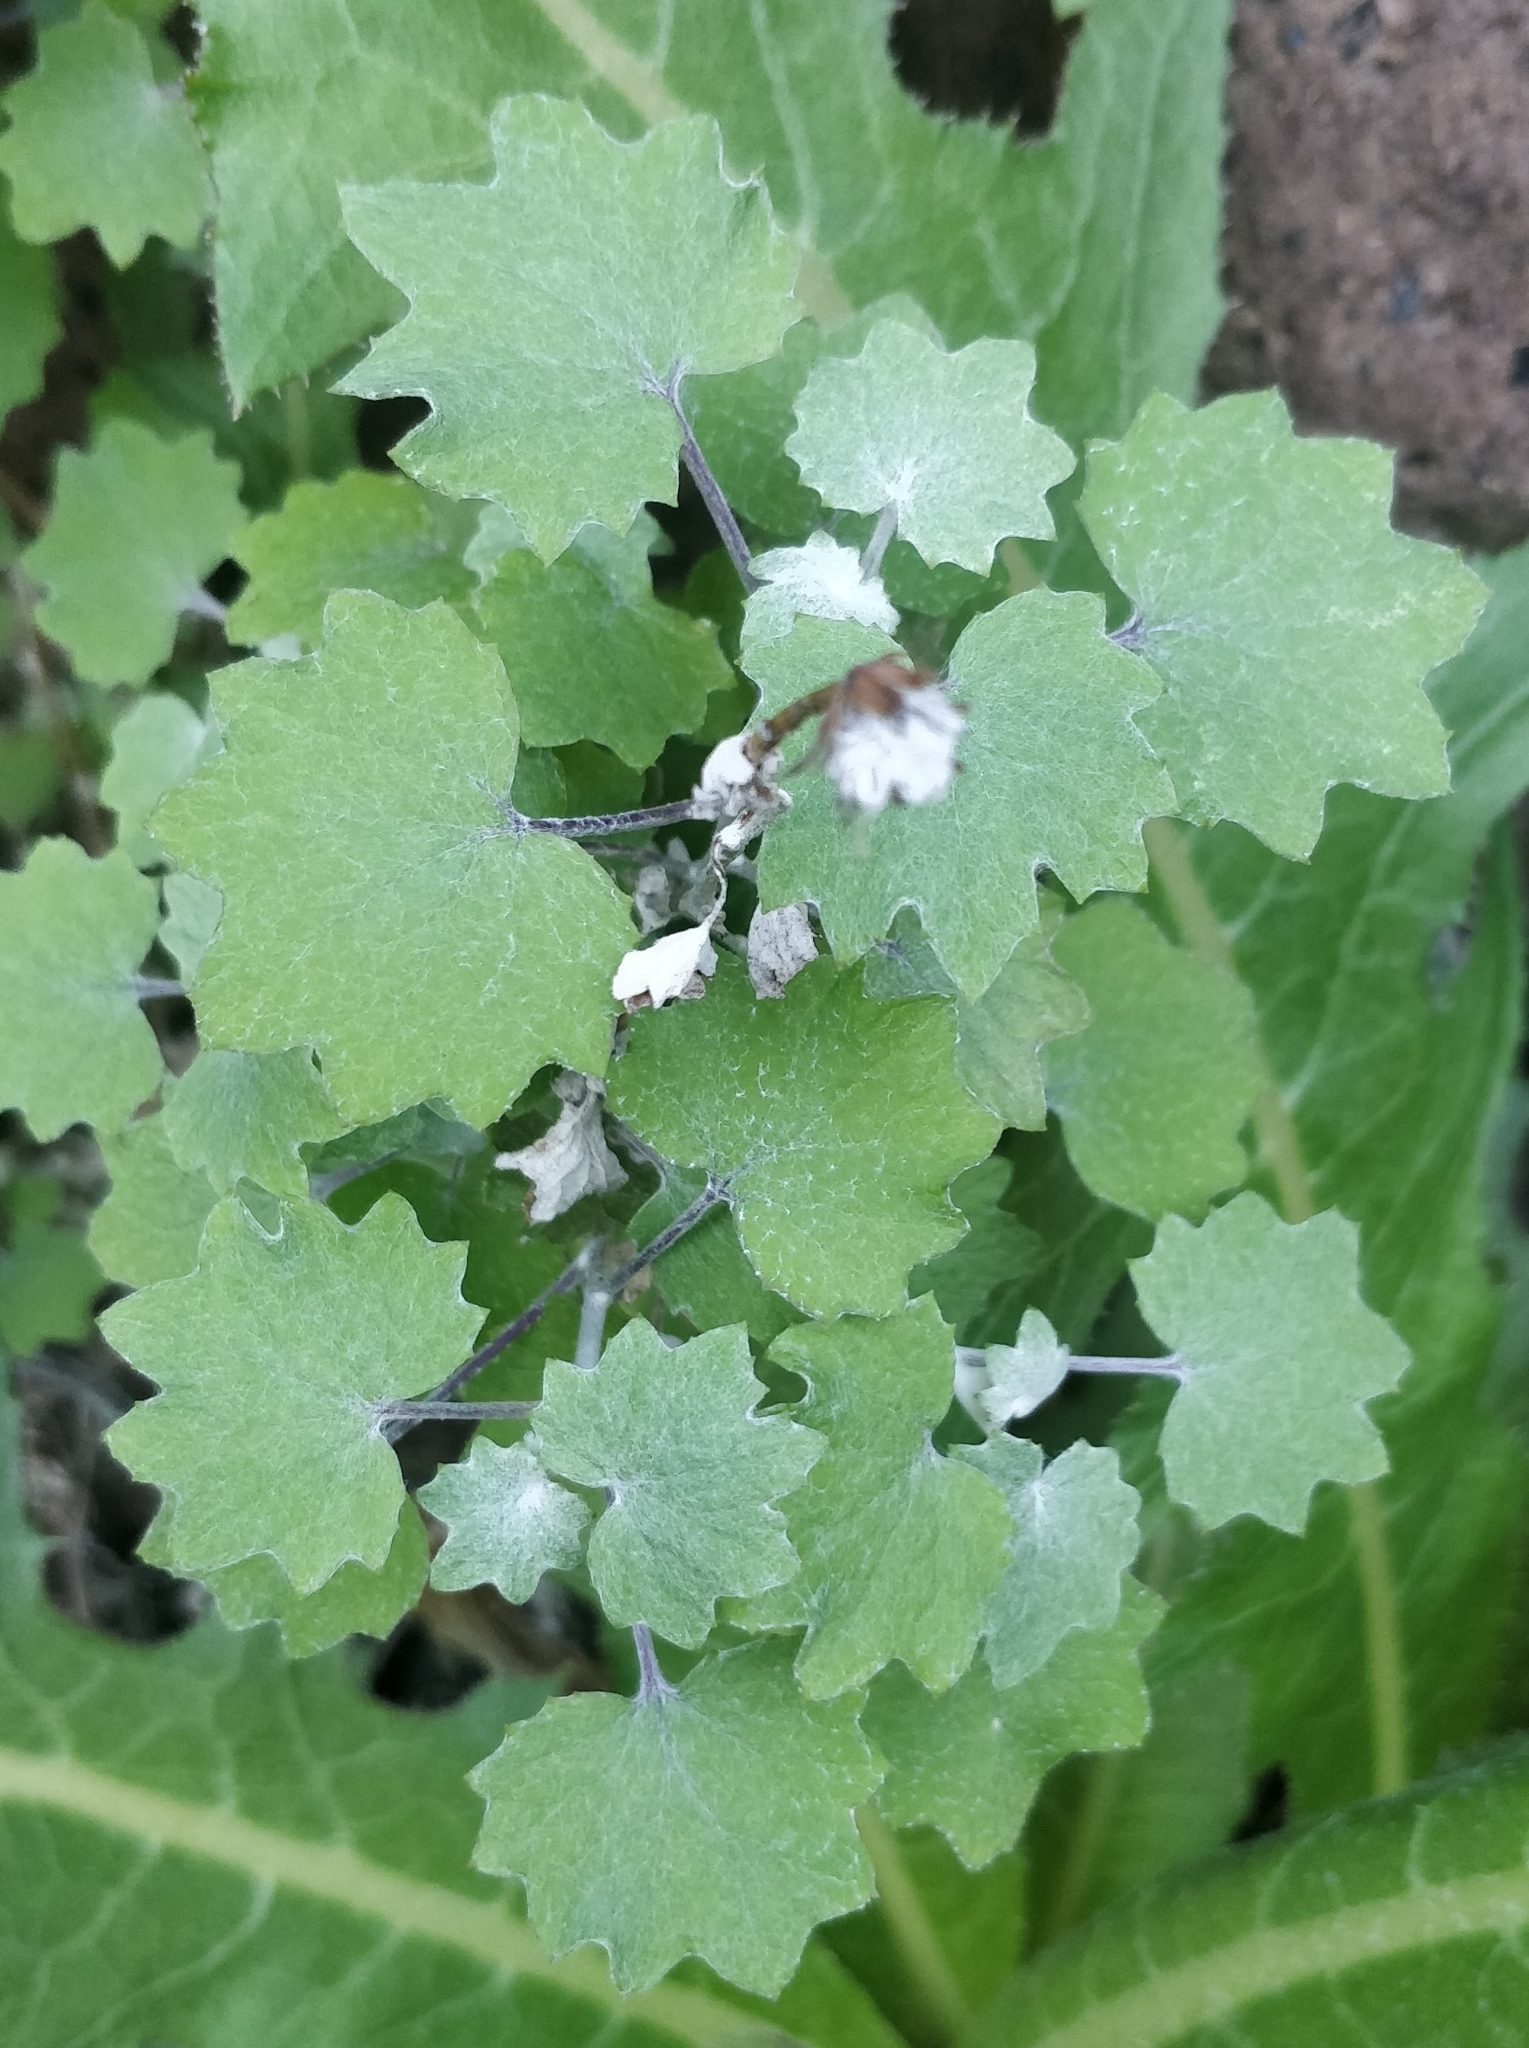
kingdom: Plantae
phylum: Tracheophyta
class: Magnoliopsida
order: Asterales
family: Asteraceae
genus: Pericallis
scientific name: Pericallis lanata
